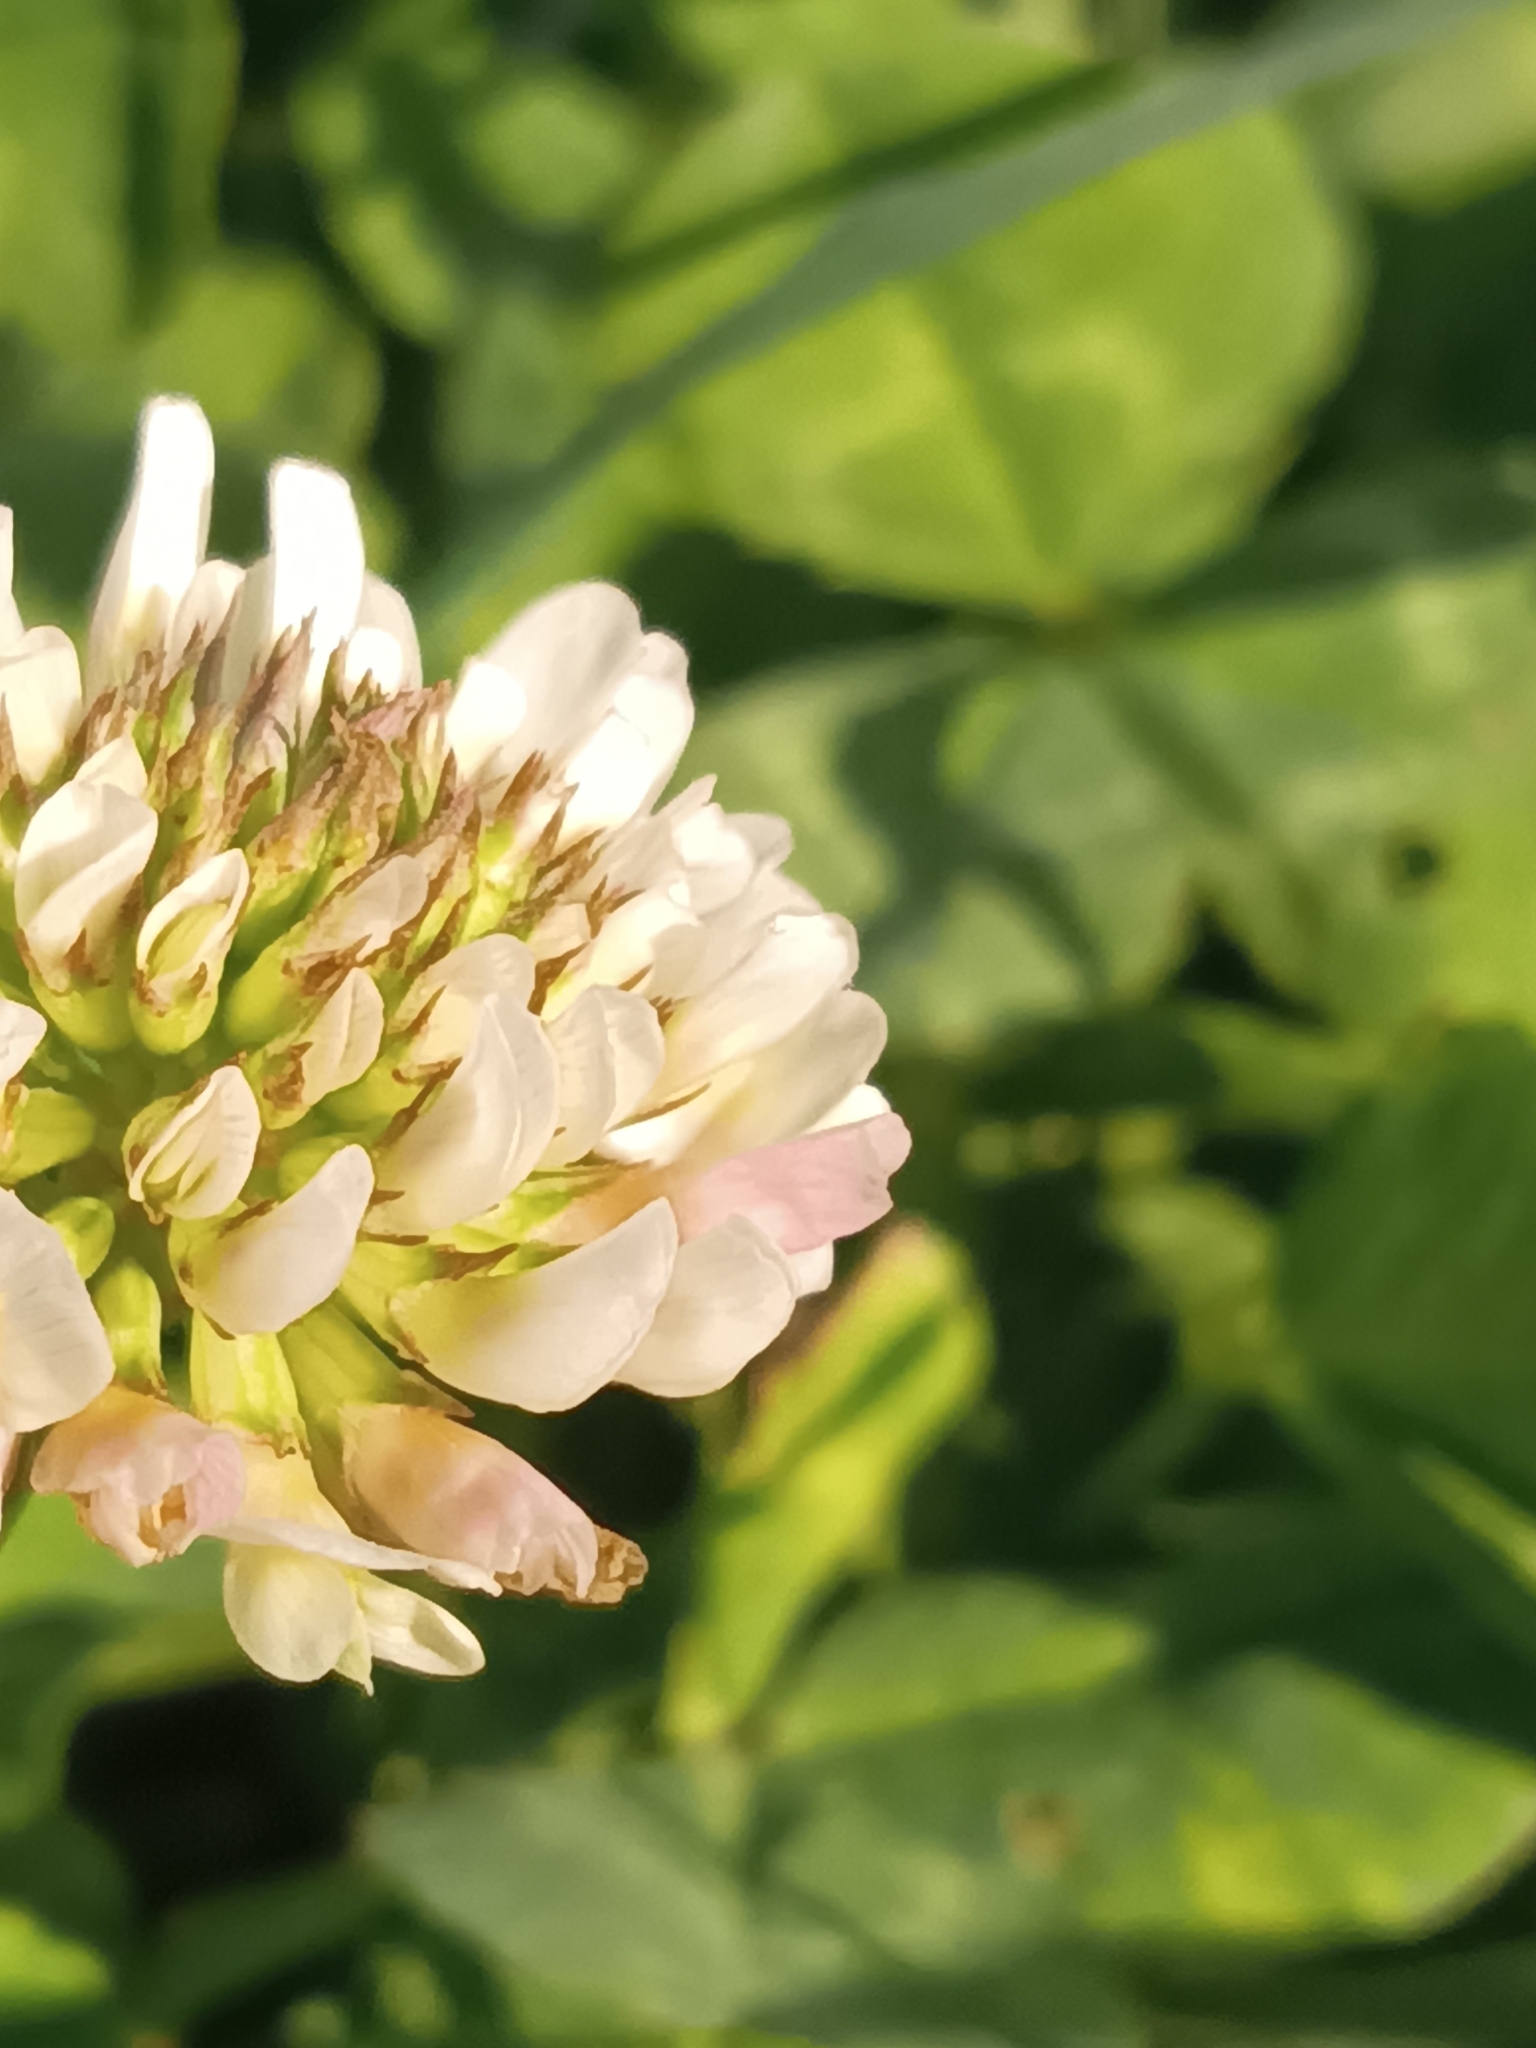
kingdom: Plantae
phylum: Tracheophyta
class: Magnoliopsida
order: Fabales
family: Fabaceae
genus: Trifolium
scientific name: Trifolium repens
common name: White clover
